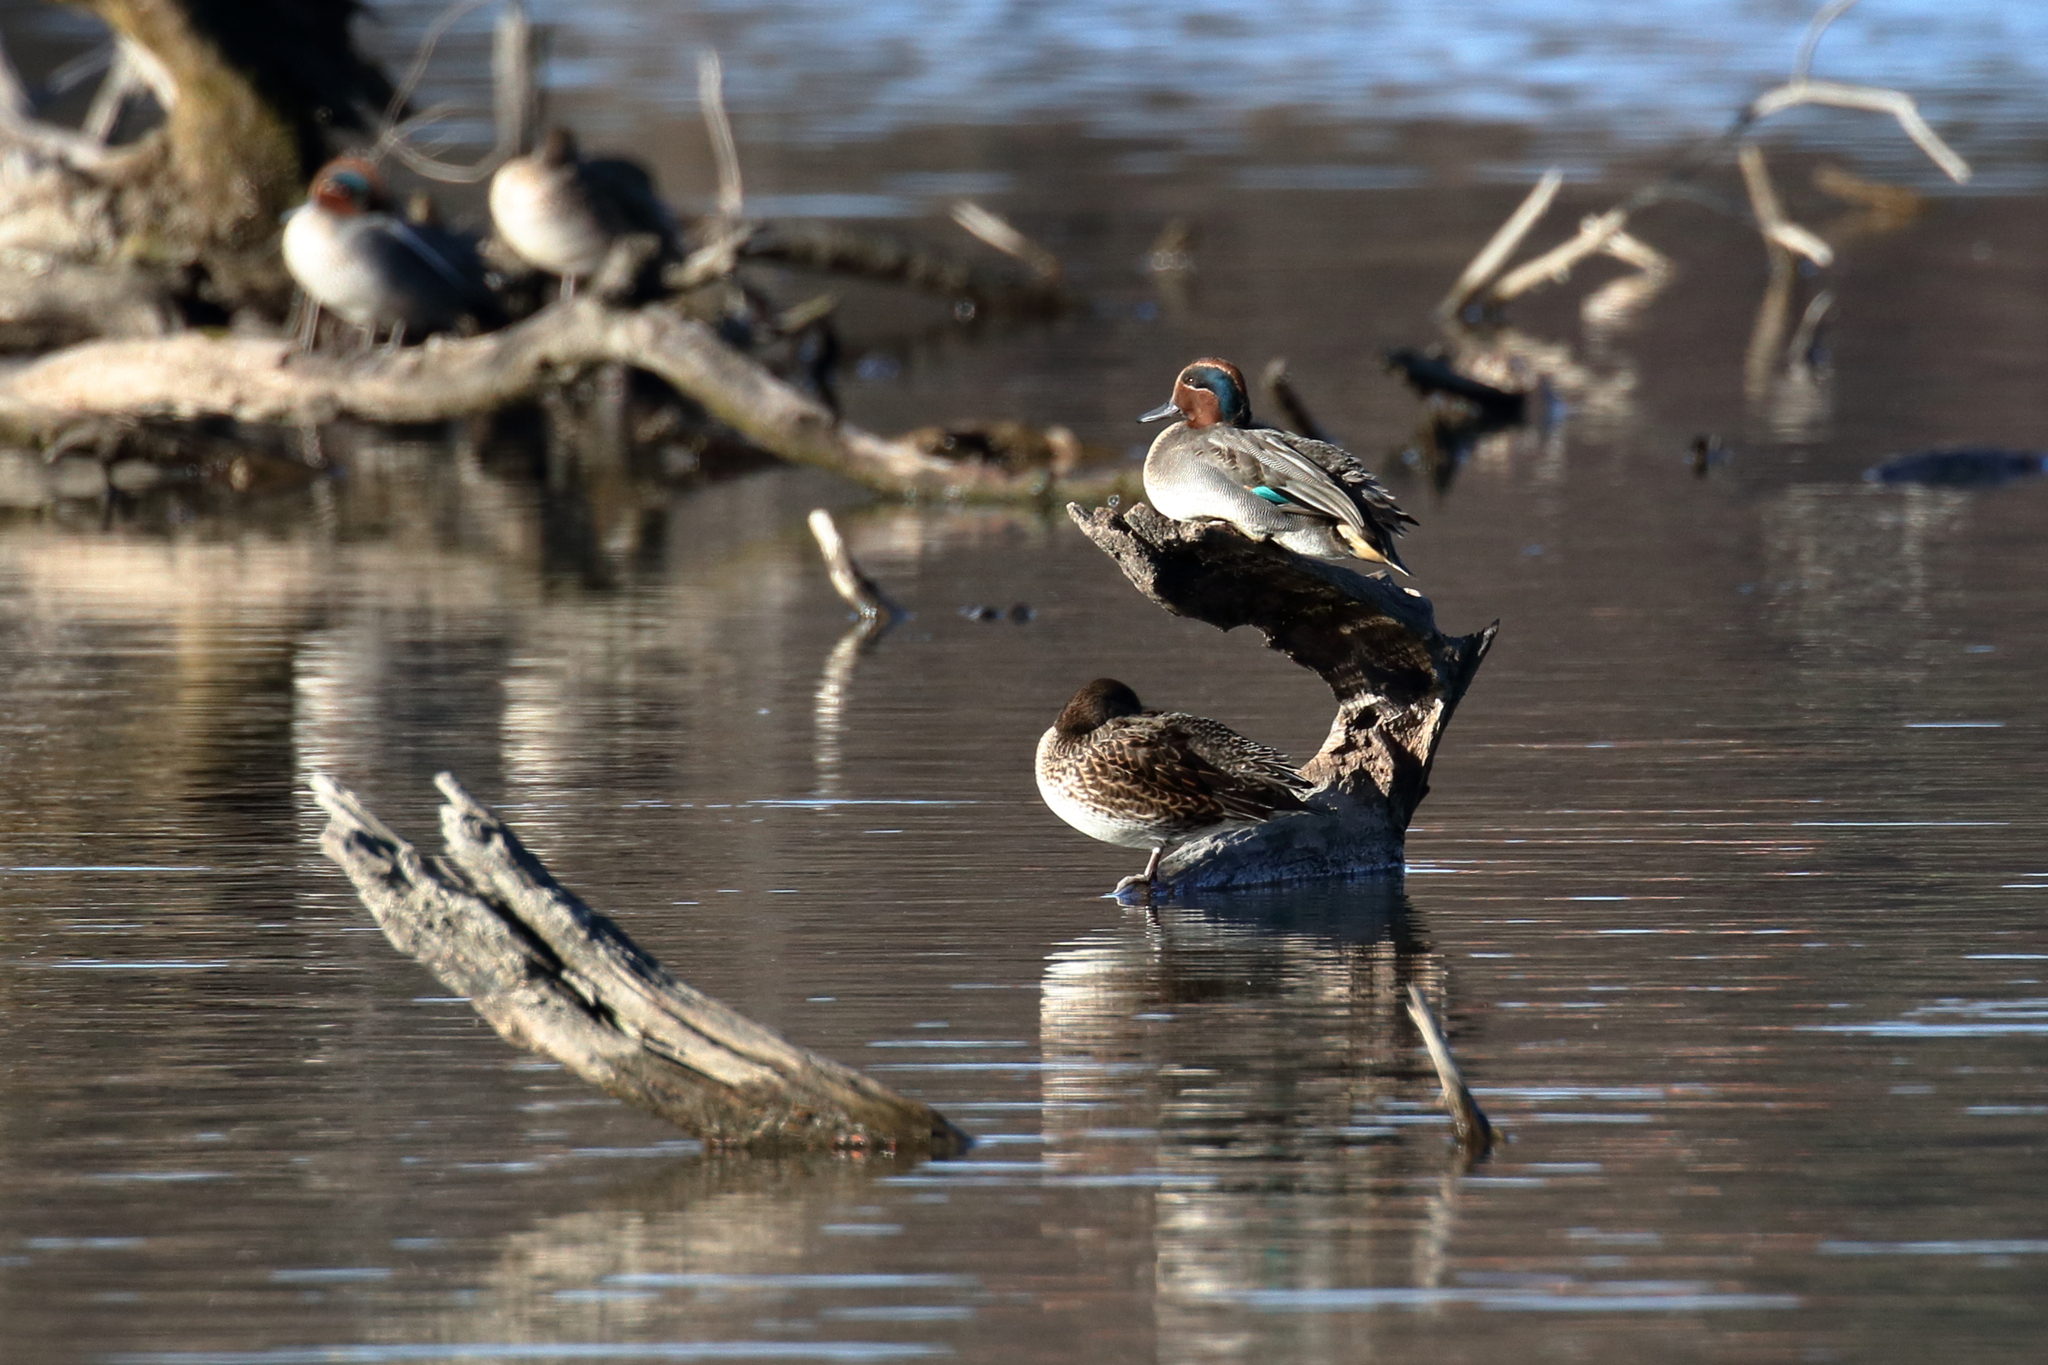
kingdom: Animalia
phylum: Chordata
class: Aves
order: Anseriformes
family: Anatidae
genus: Anas
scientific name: Anas crecca
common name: Eurasian teal
